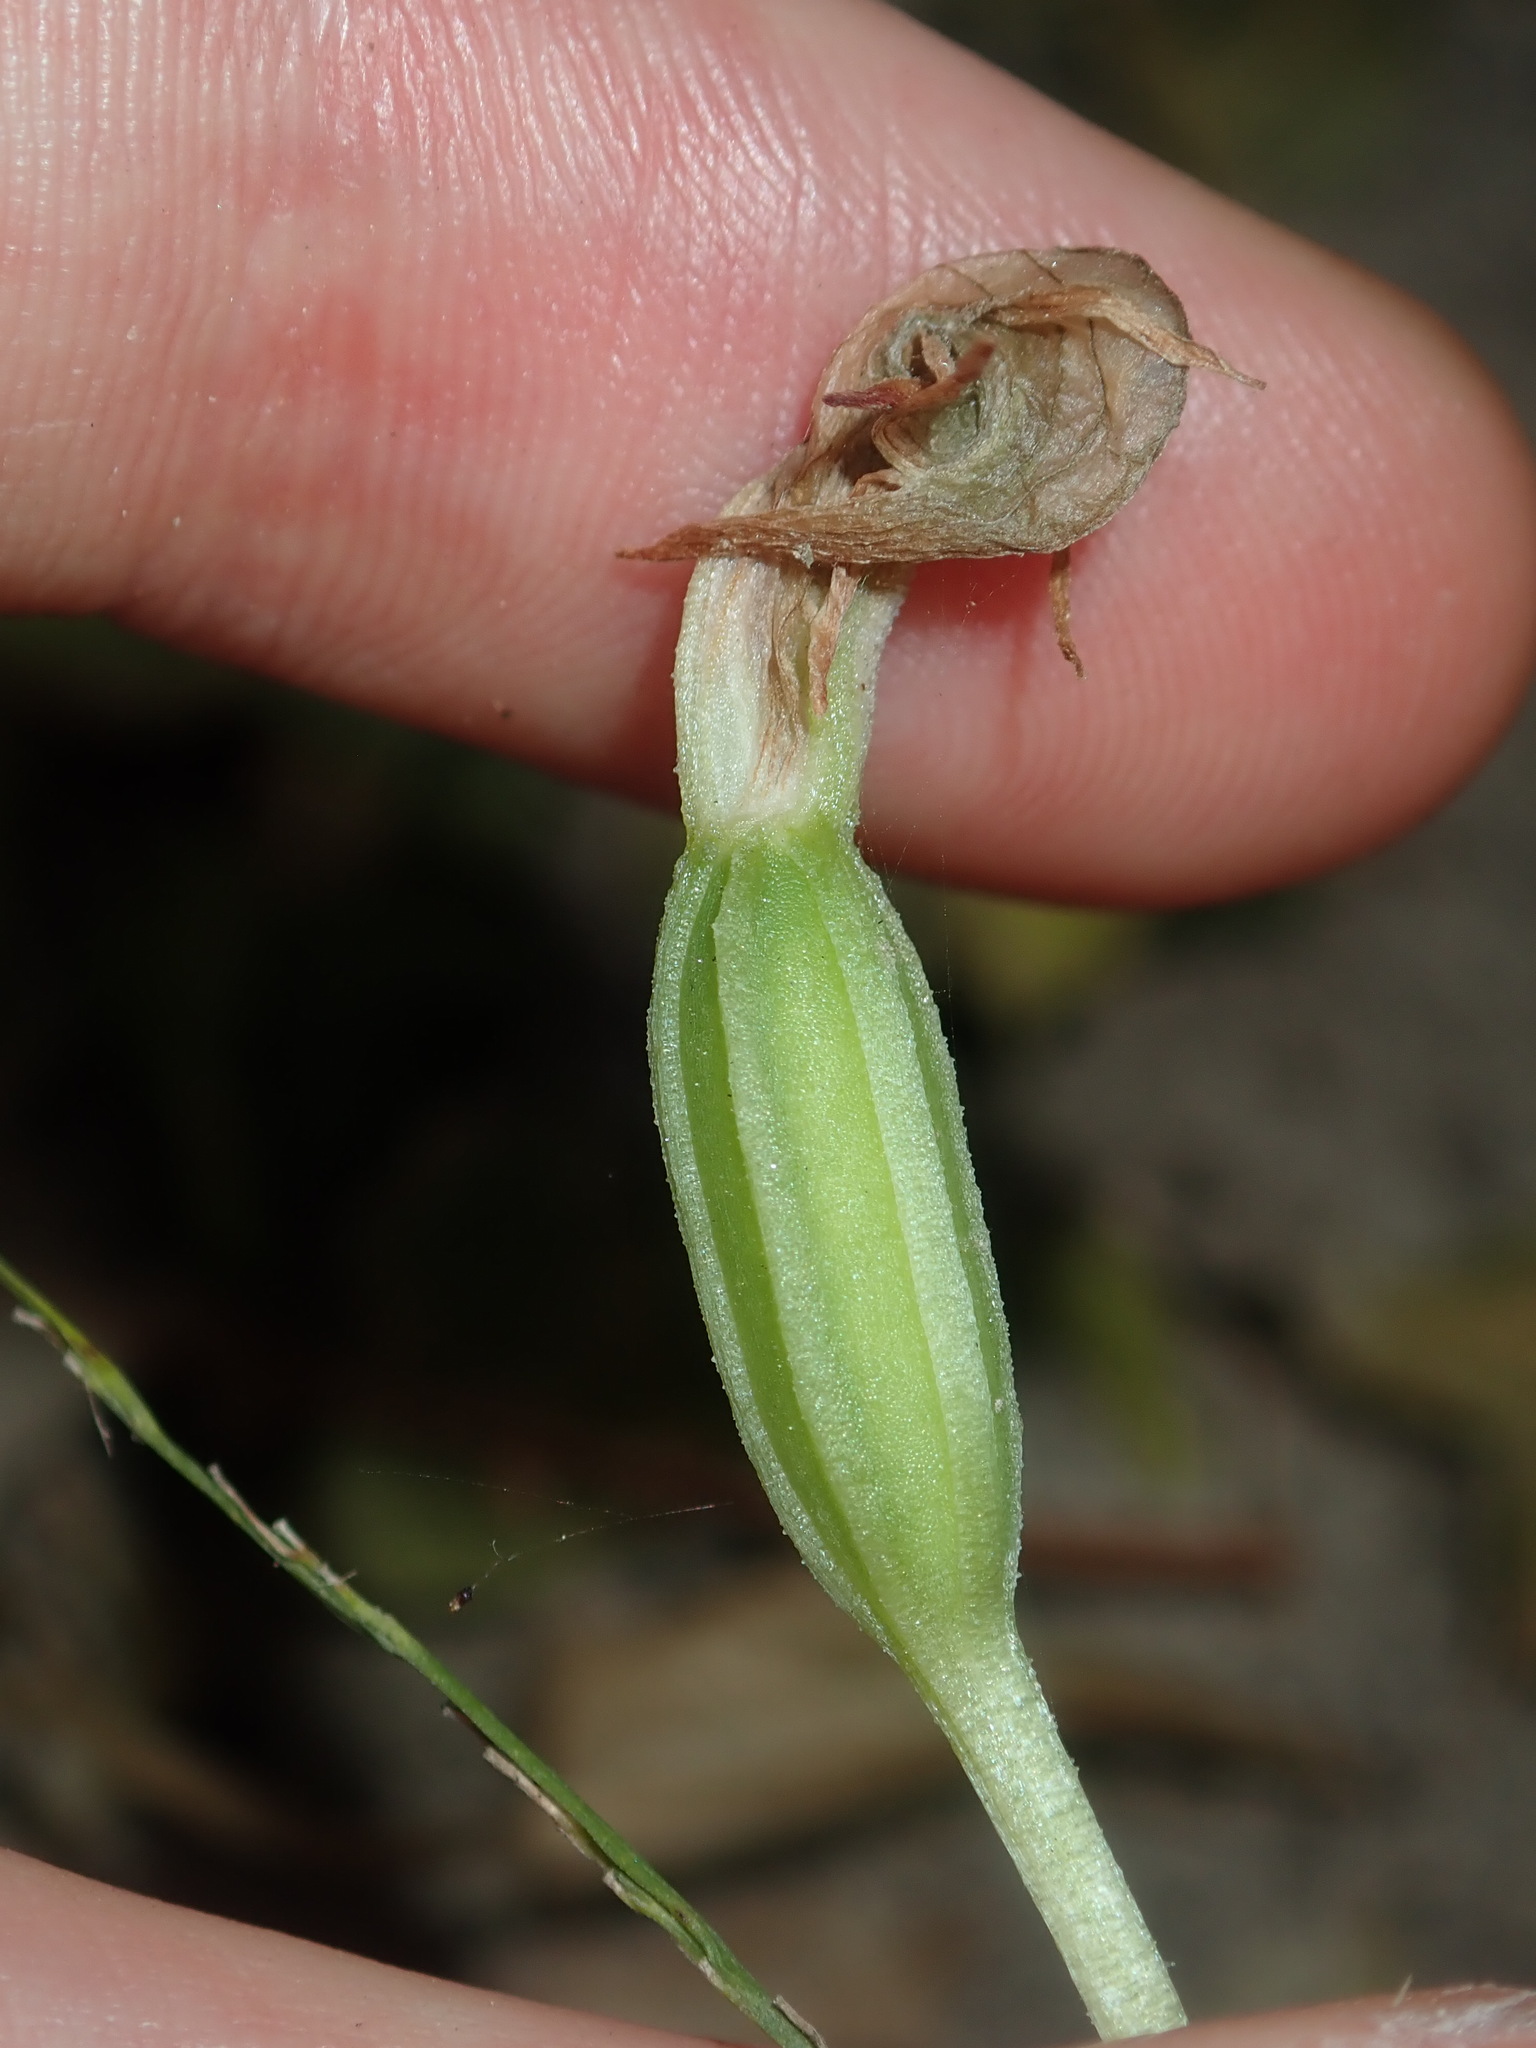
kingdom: Plantae
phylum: Tracheophyta
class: Liliopsida
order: Asparagales
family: Orchidaceae
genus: Pterostylis
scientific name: Pterostylis nutans
